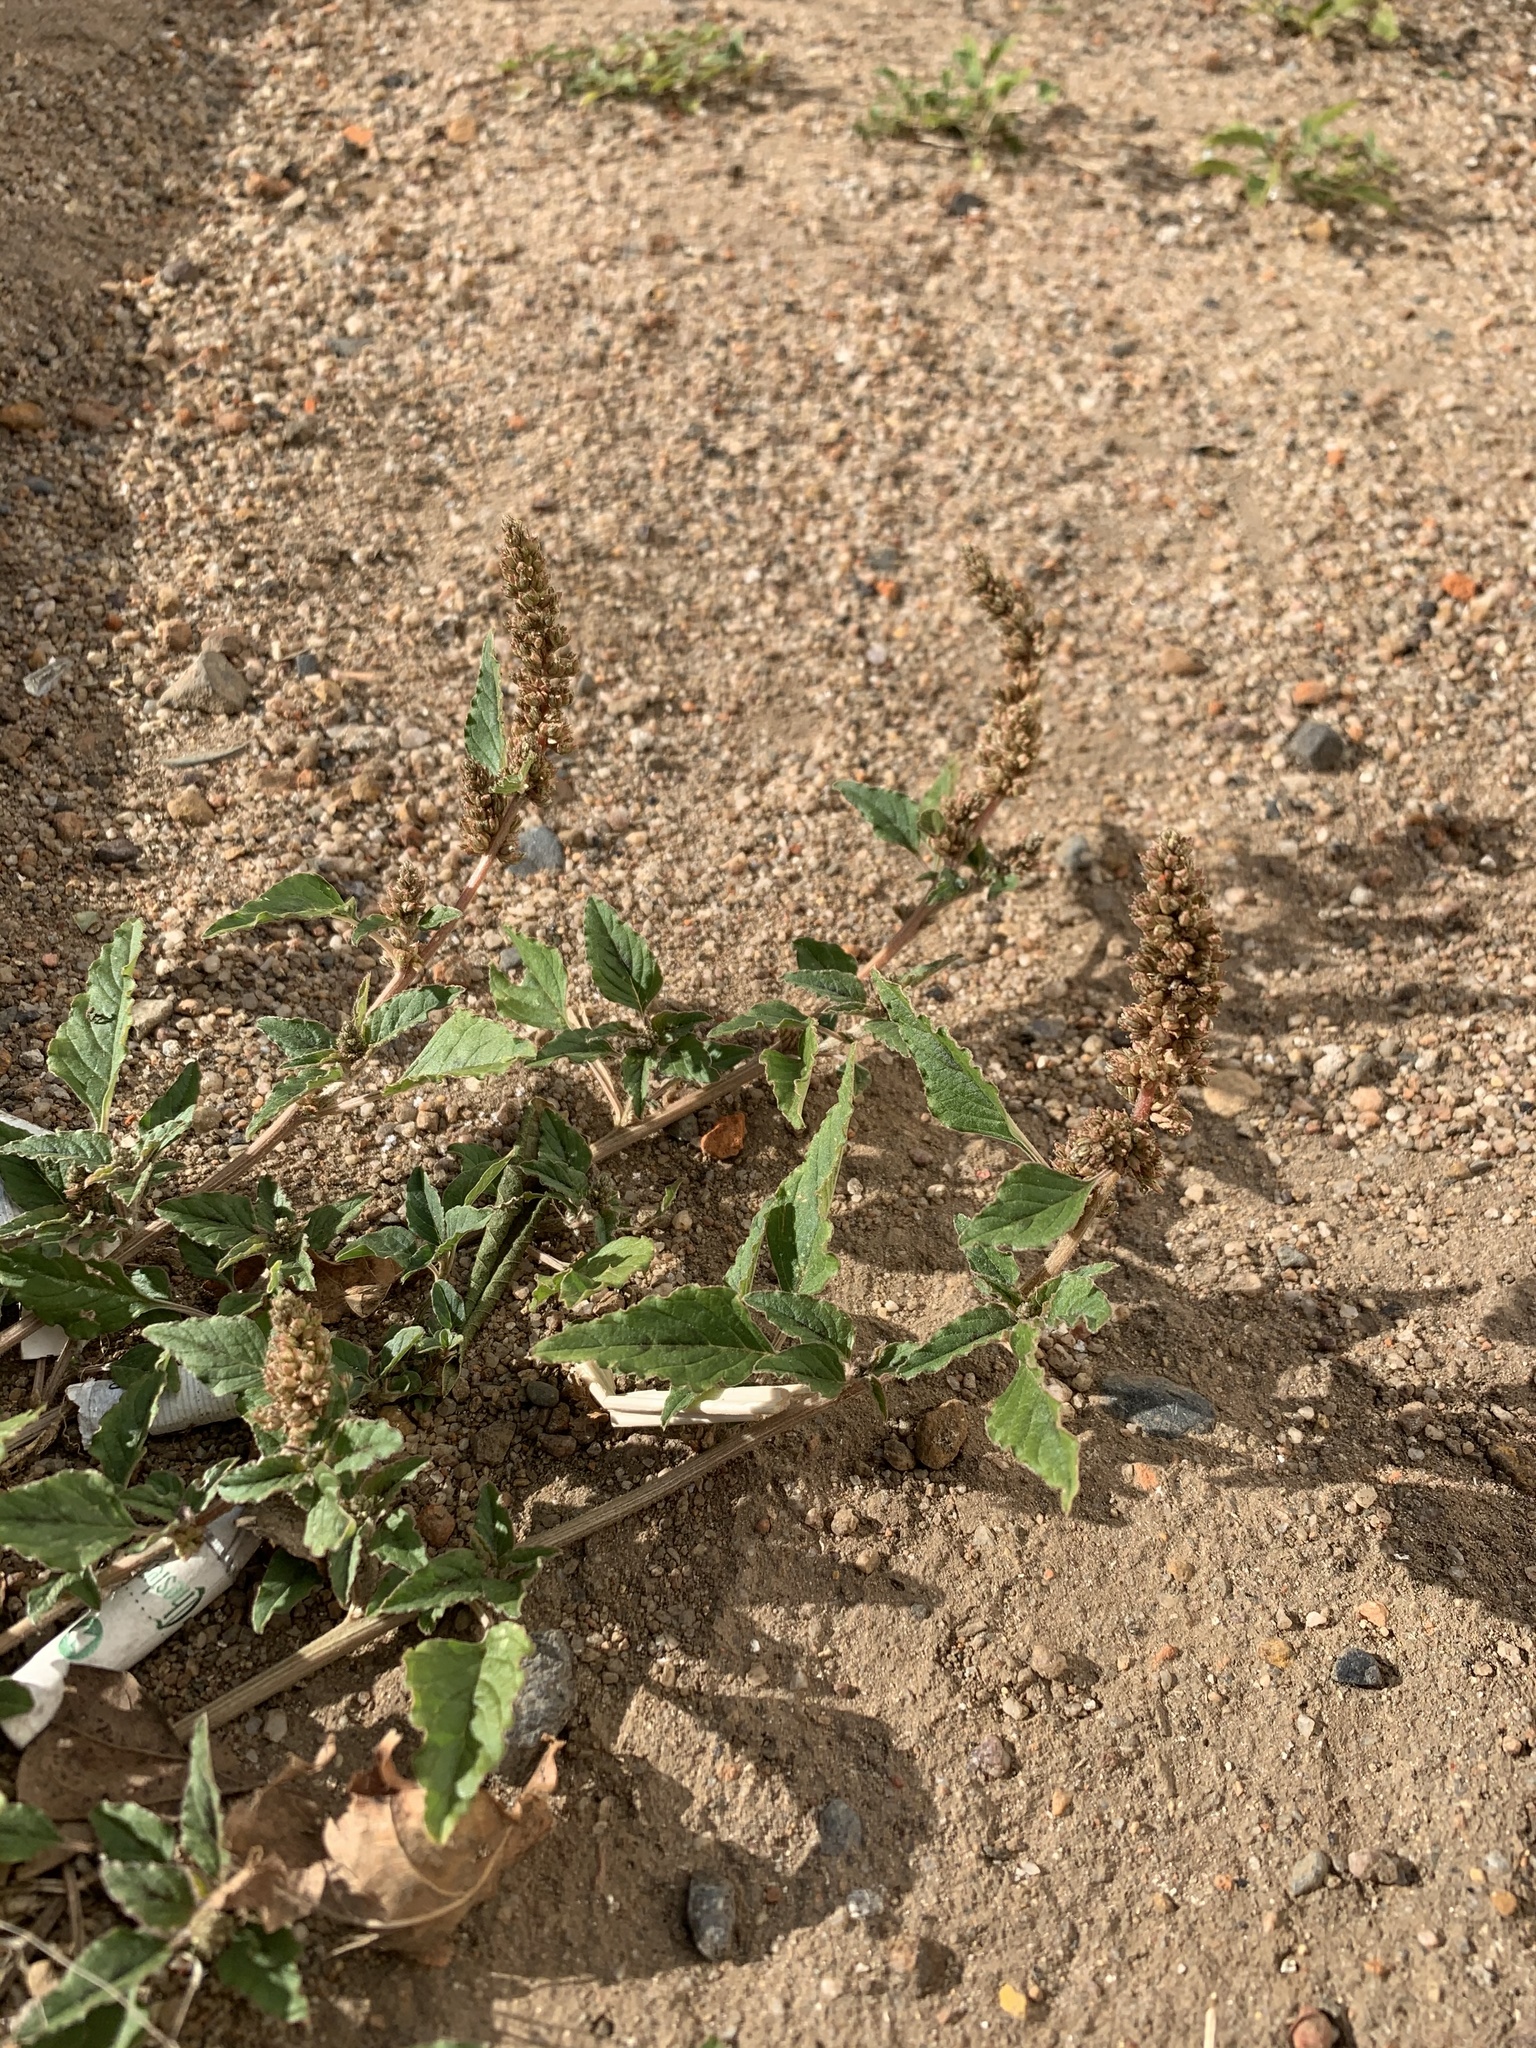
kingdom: Plantae
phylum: Tracheophyta
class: Magnoliopsida
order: Caryophyllales
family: Amaranthaceae
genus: Amaranthus
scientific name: Amaranthus deflexus
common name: Perennial pigweed
